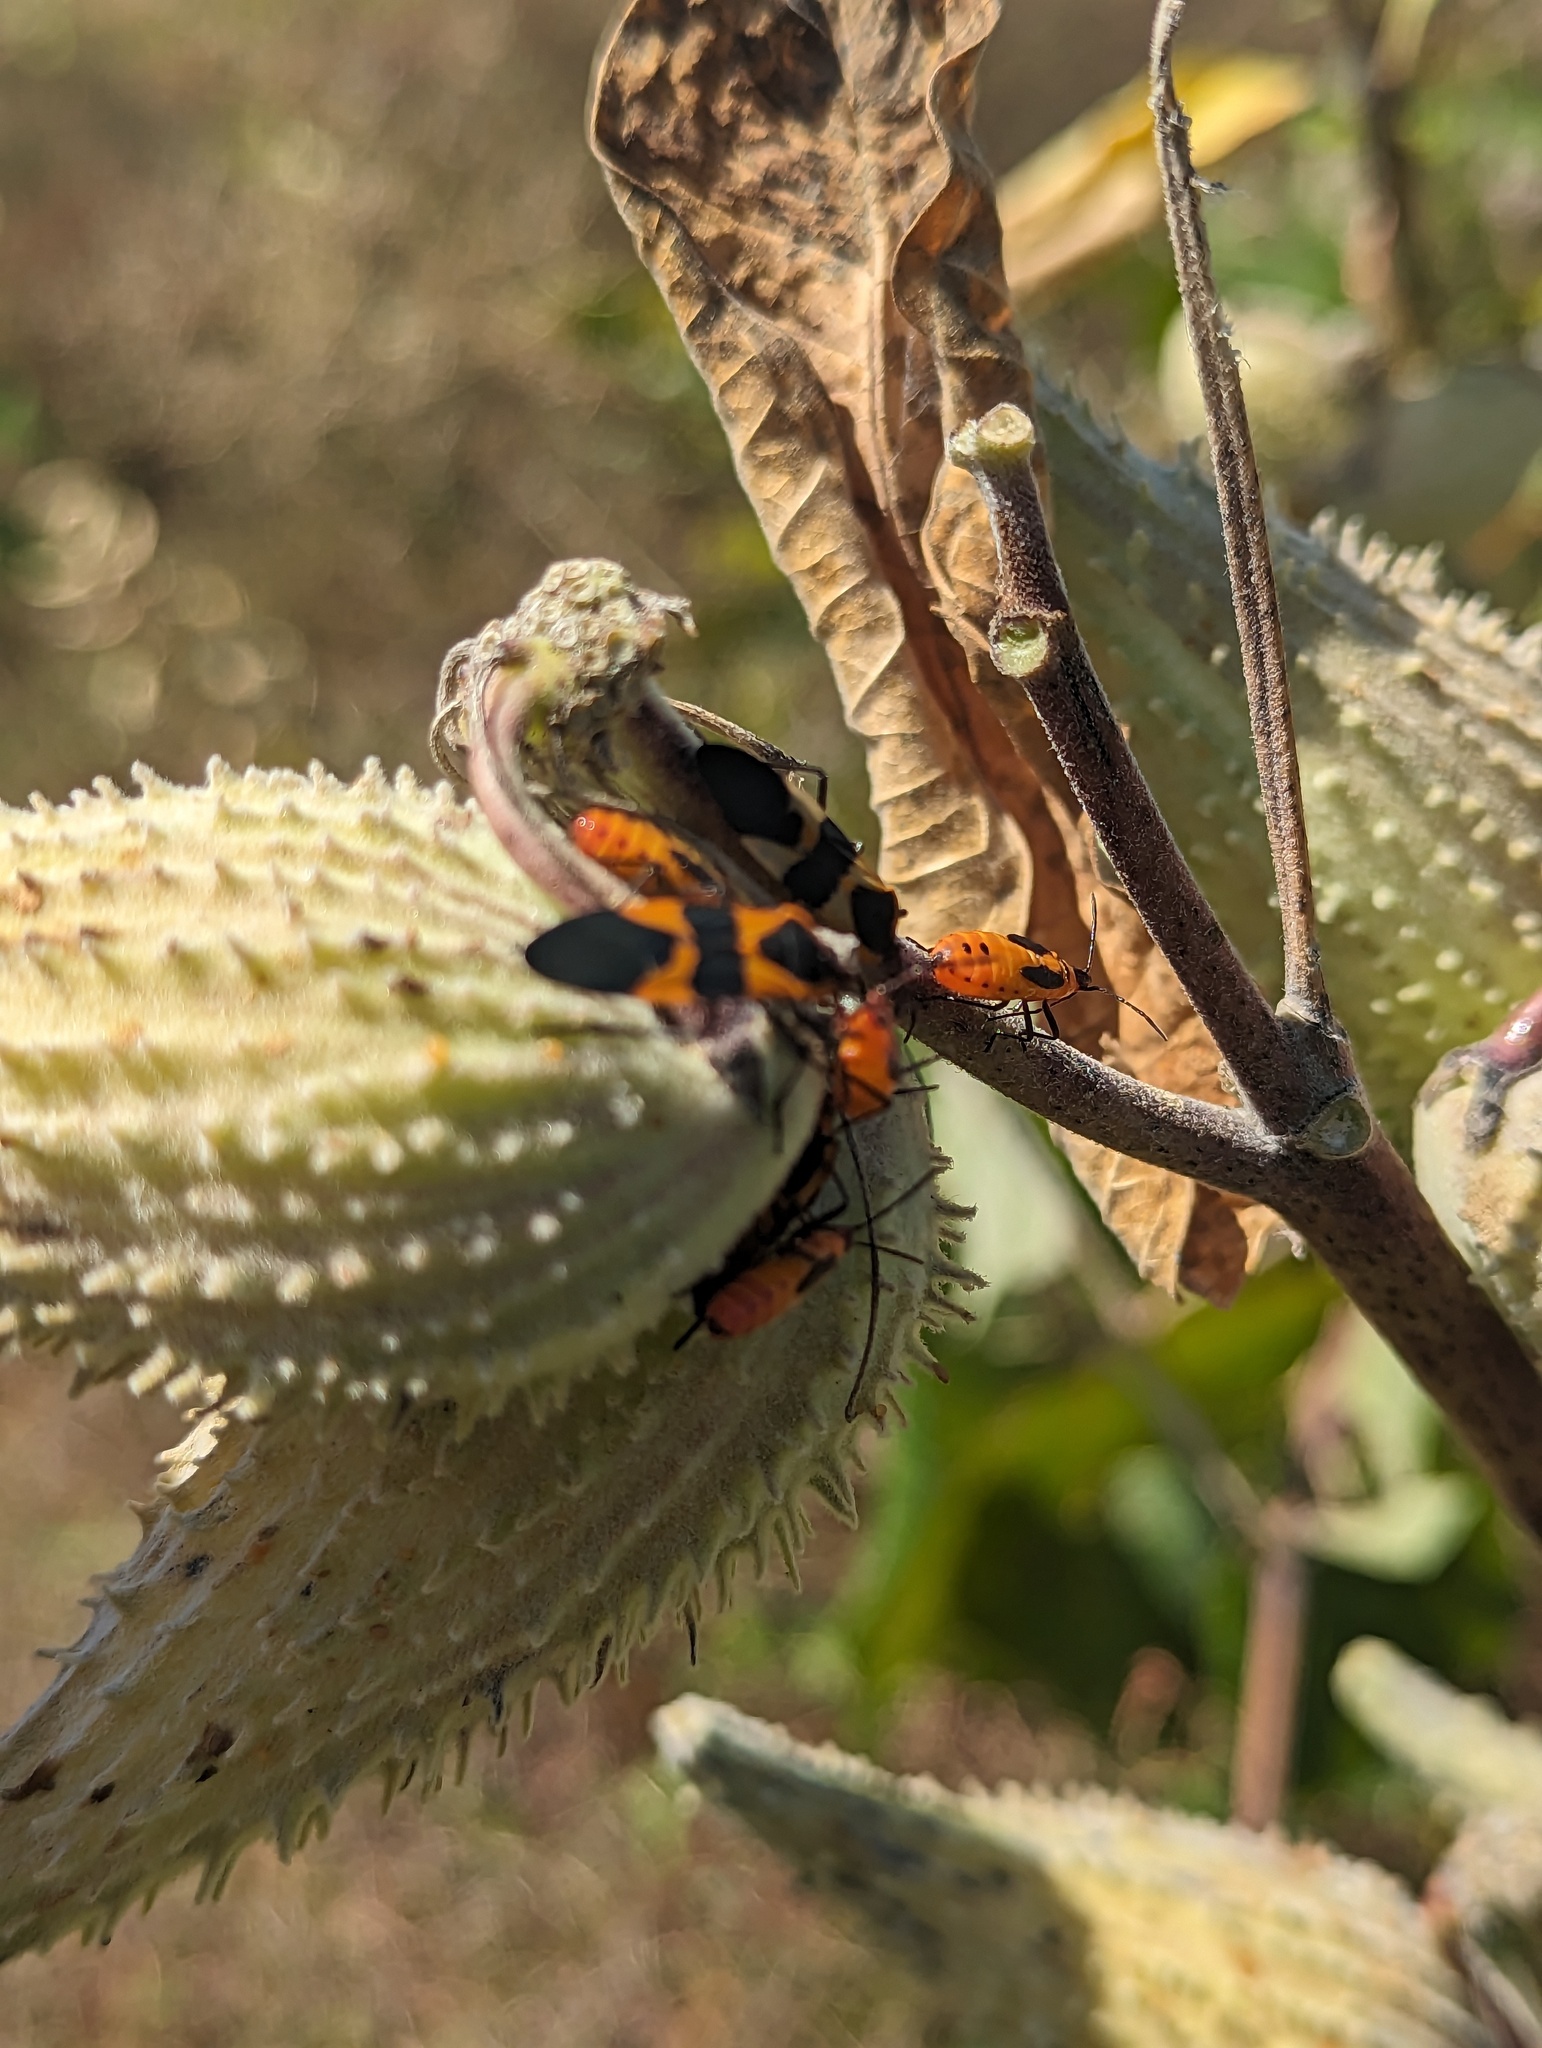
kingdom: Animalia
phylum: Arthropoda
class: Insecta
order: Hemiptera
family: Lygaeidae
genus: Oncopeltus
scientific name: Oncopeltus fasciatus
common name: Large milkweed bug
